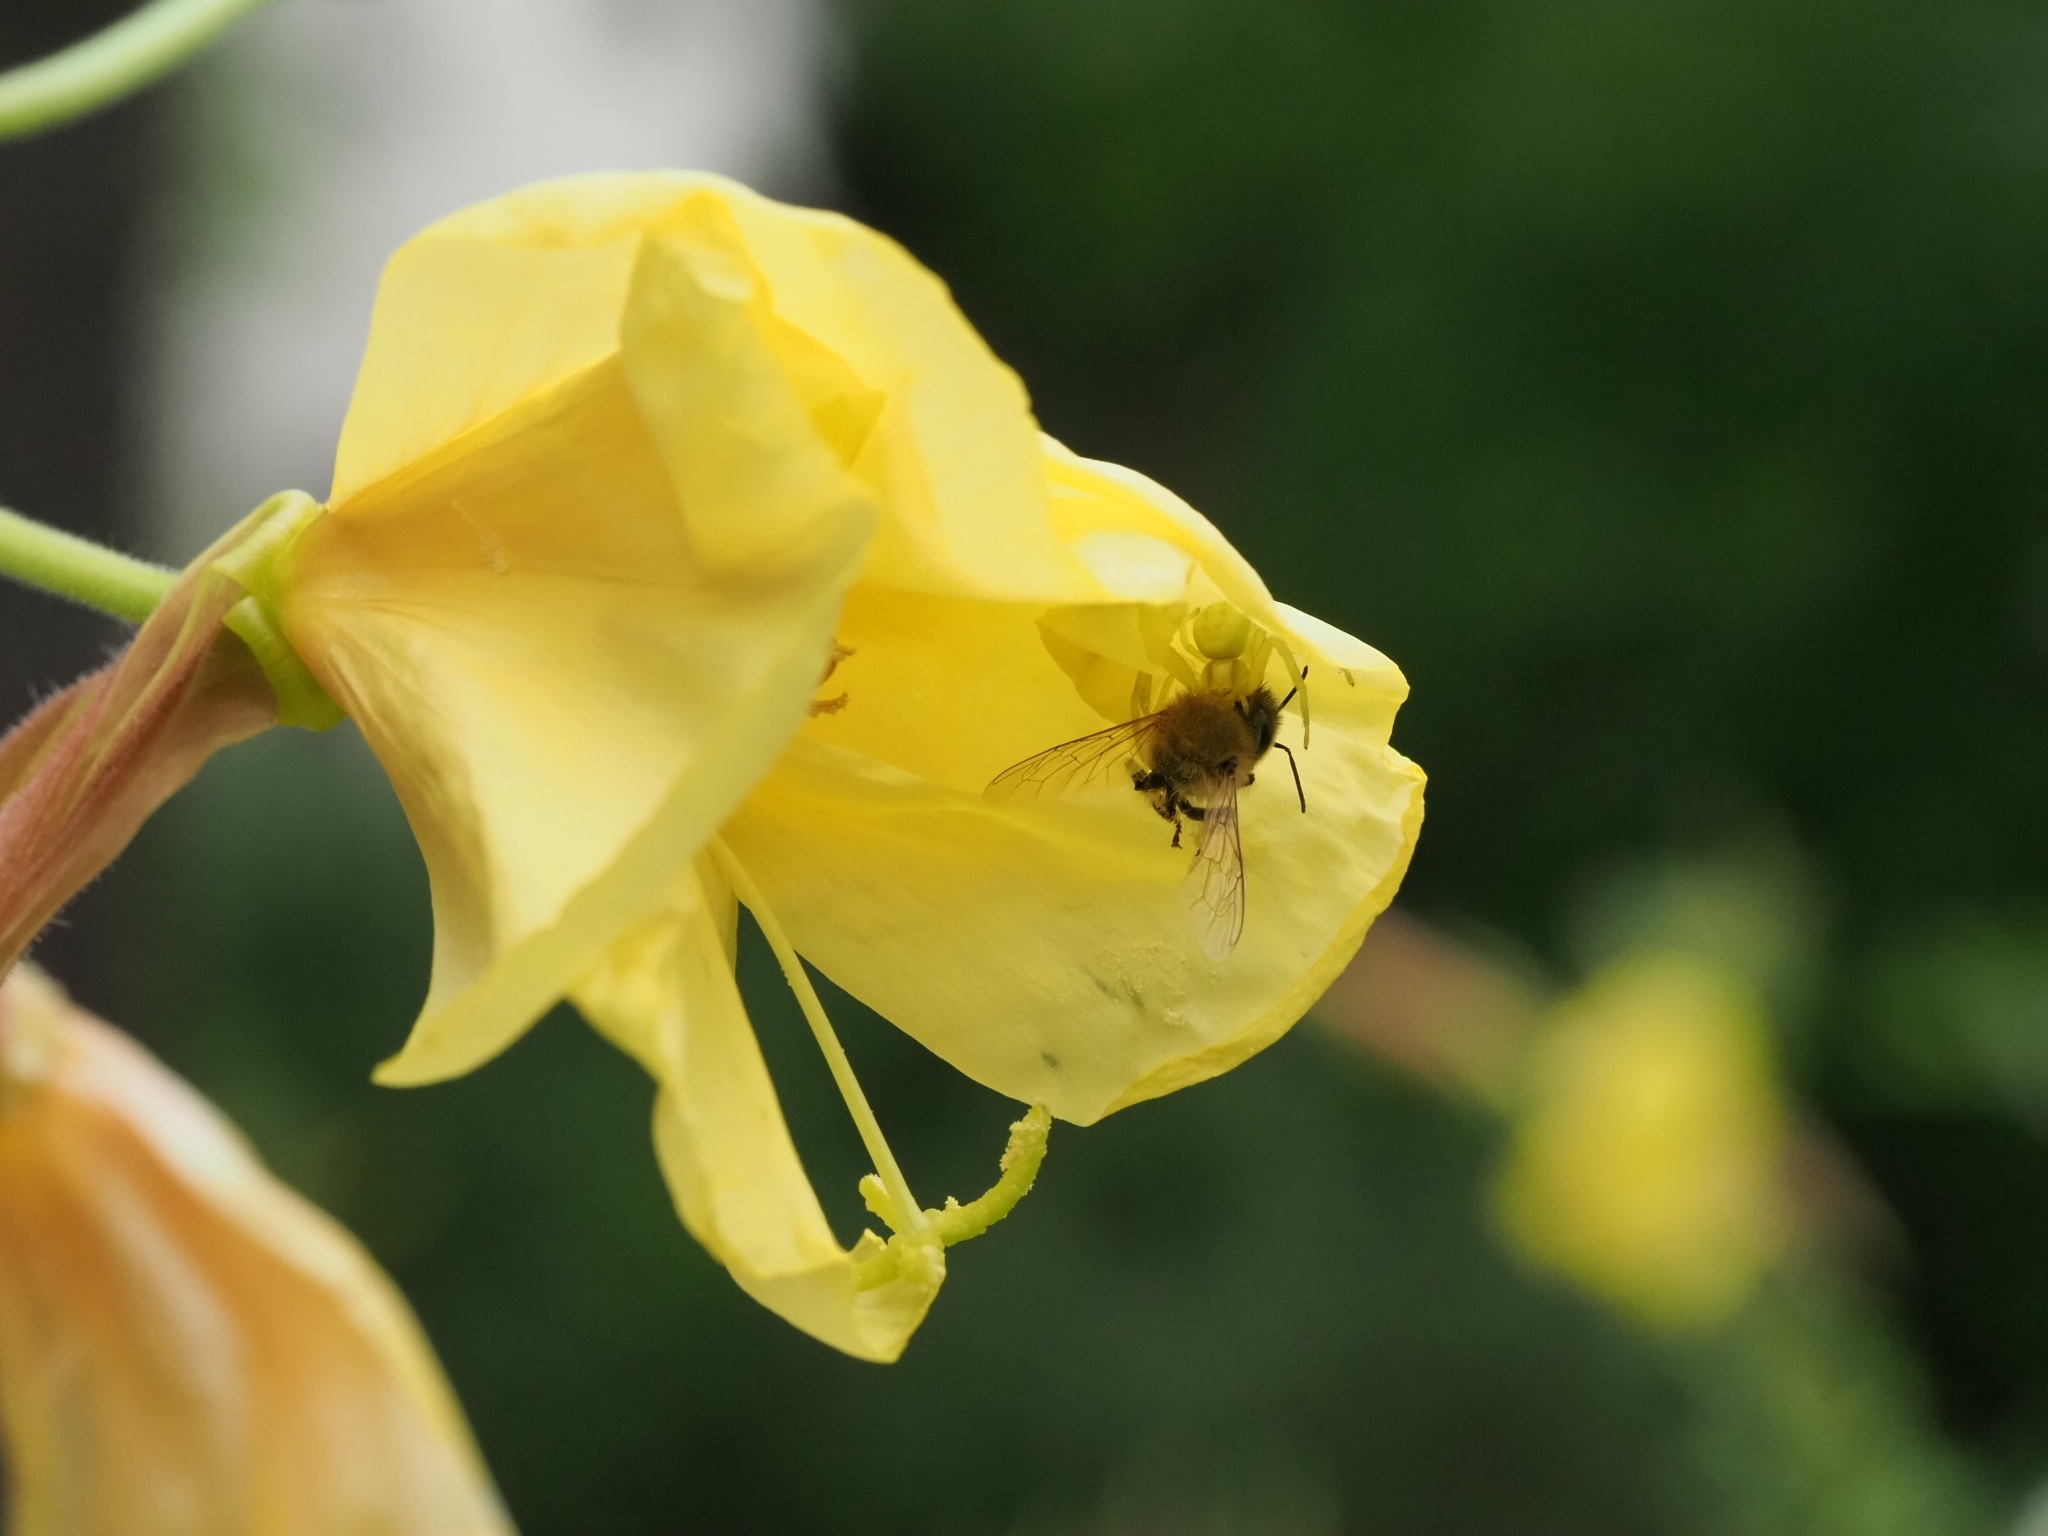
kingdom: Animalia
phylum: Arthropoda
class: Arachnida
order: Araneae
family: Thomisidae
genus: Misumena
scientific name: Misumena vatia
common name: Goldenrod crab spider
